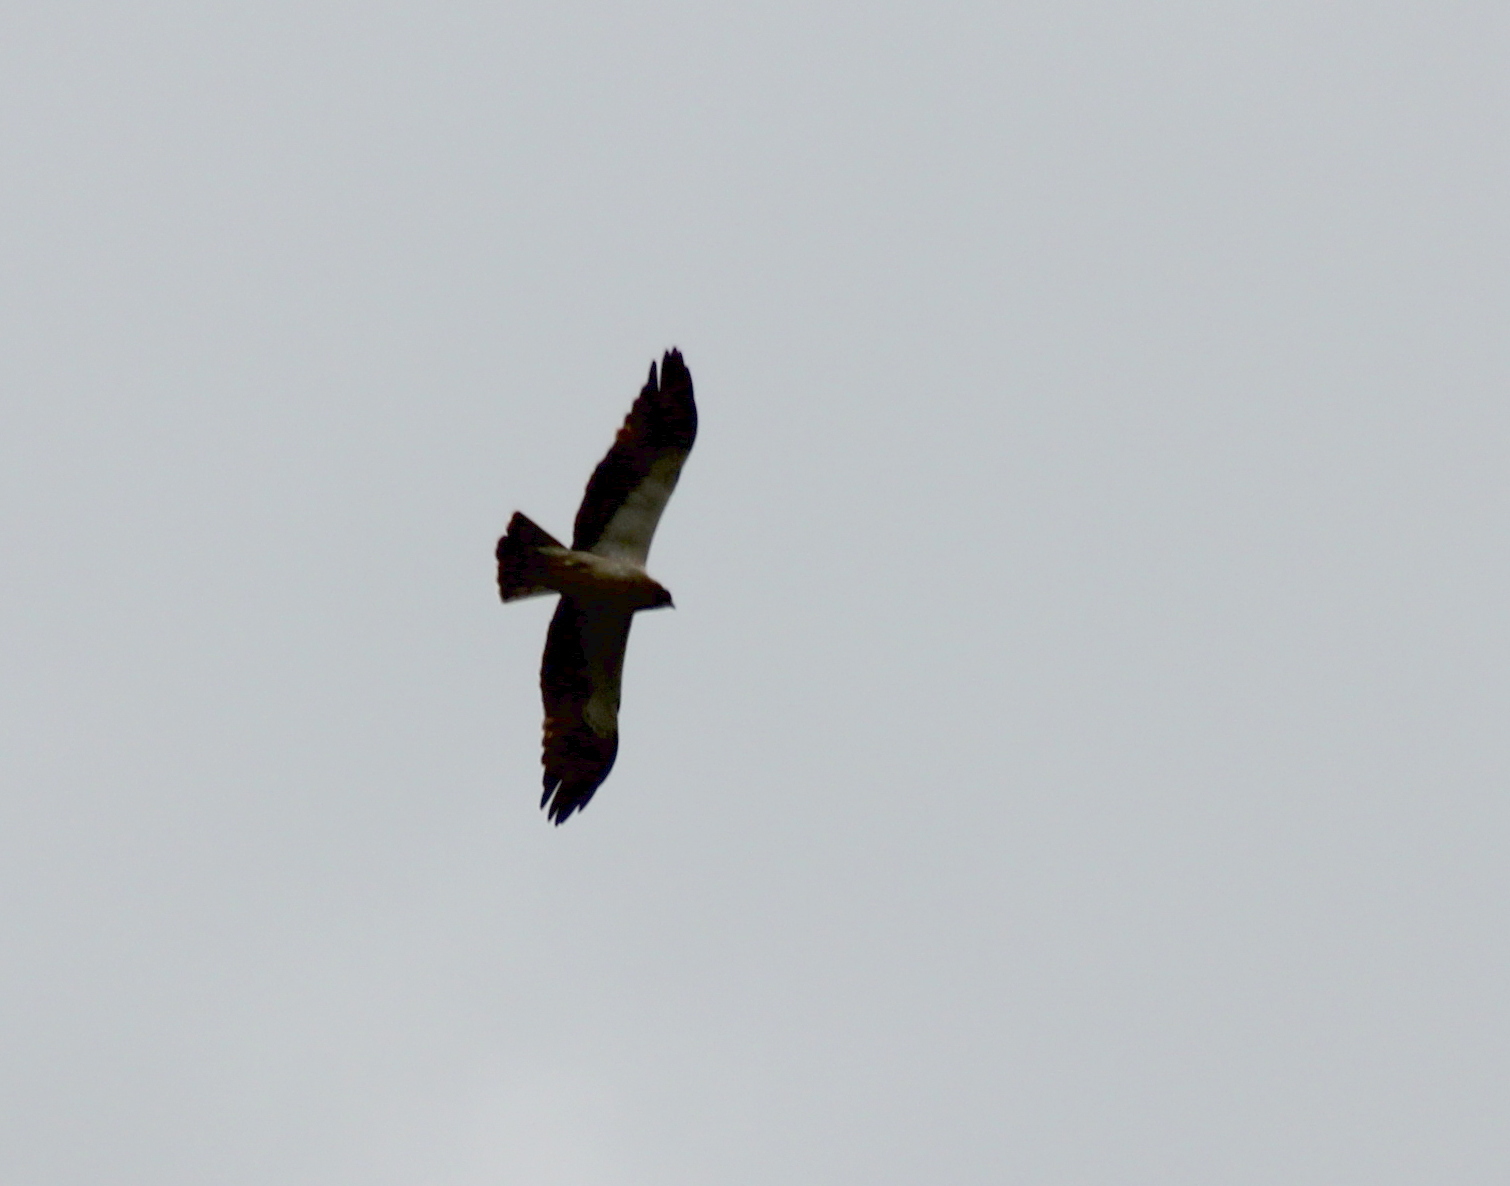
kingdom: Animalia
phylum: Chordata
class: Aves
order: Accipitriformes
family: Accipitridae
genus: Hieraaetus
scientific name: Hieraaetus pennatus
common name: Booted eagle
